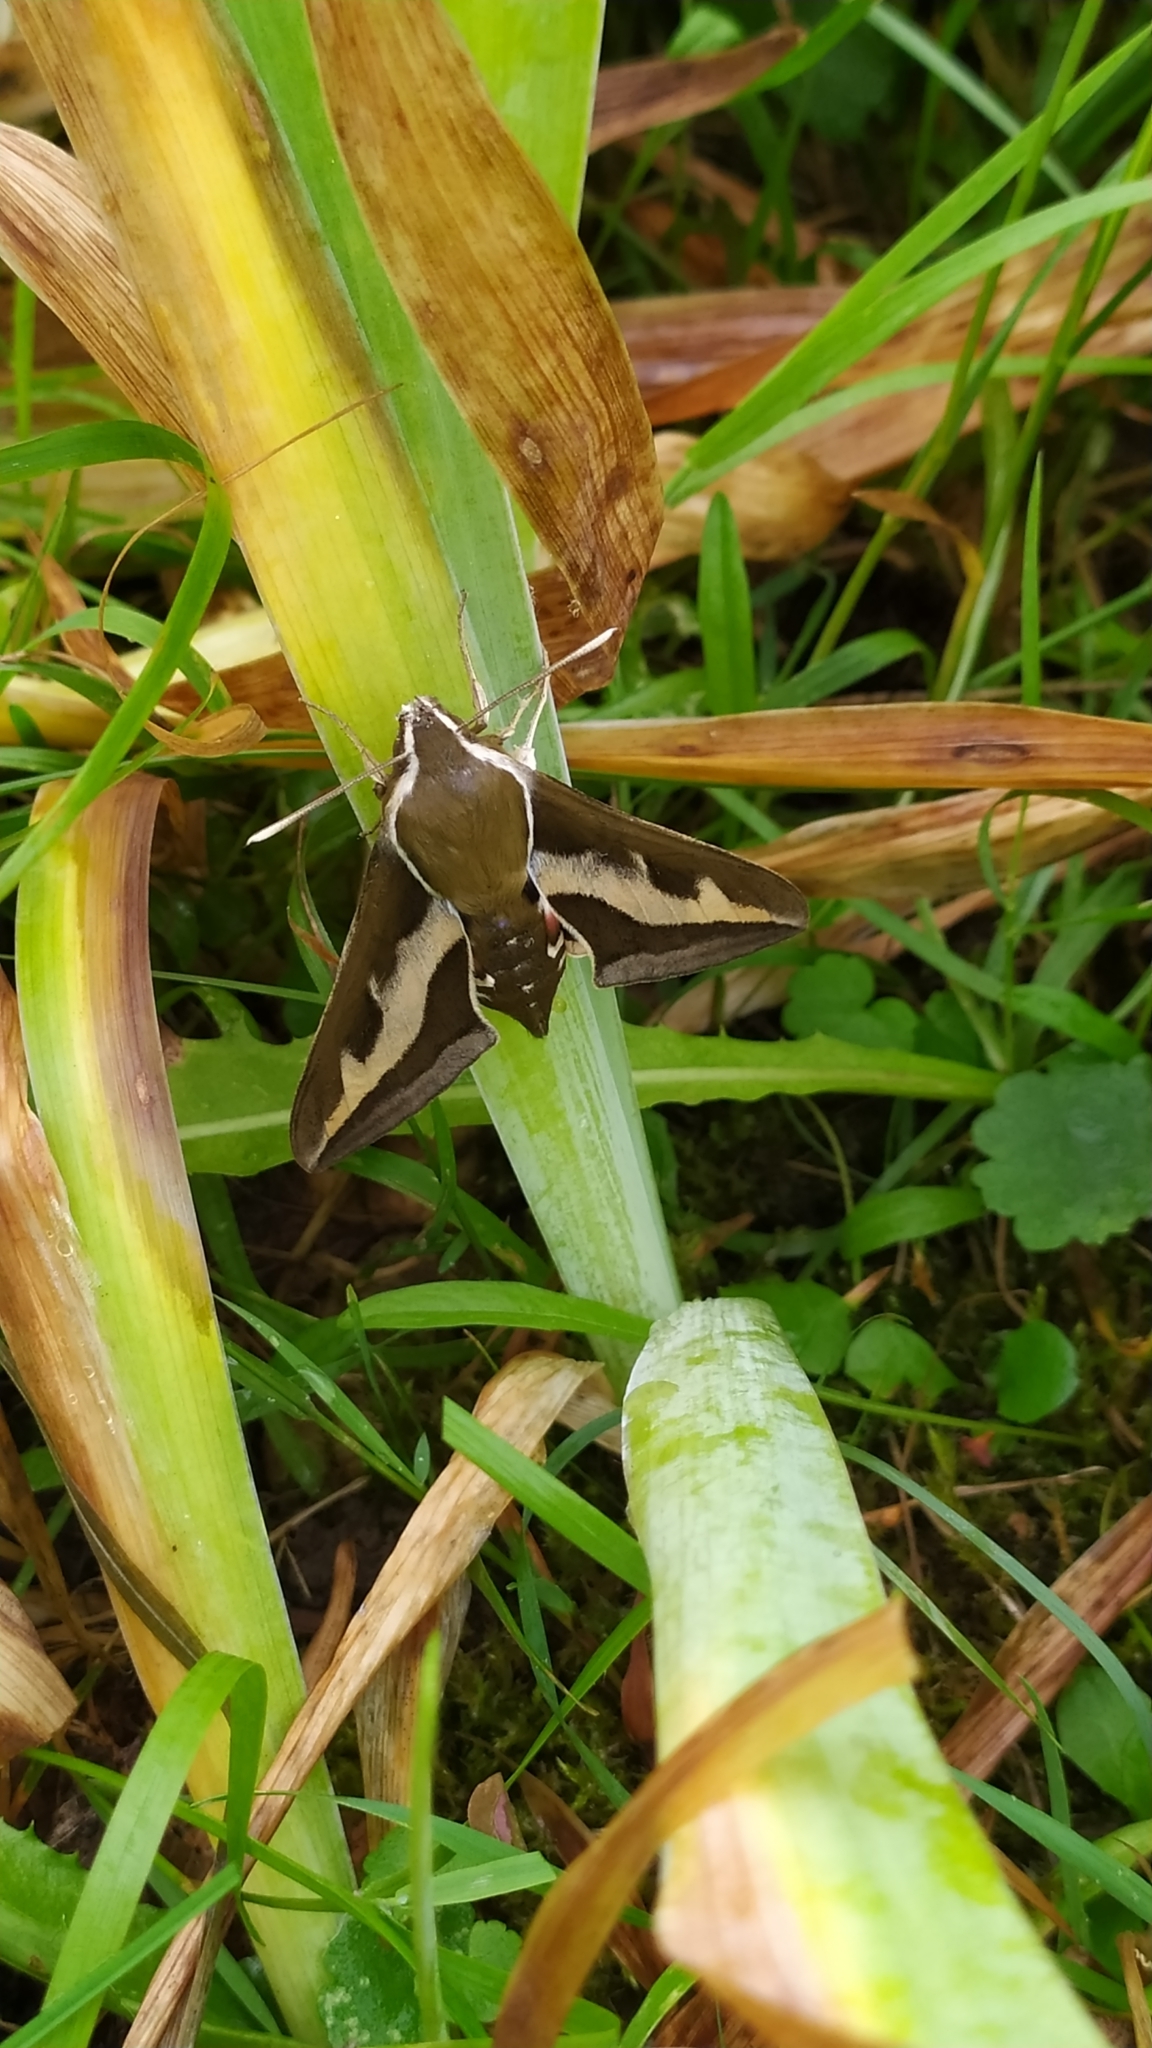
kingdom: Animalia
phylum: Arthropoda
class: Insecta
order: Lepidoptera
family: Sphingidae
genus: Hyles
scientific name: Hyles gallii
